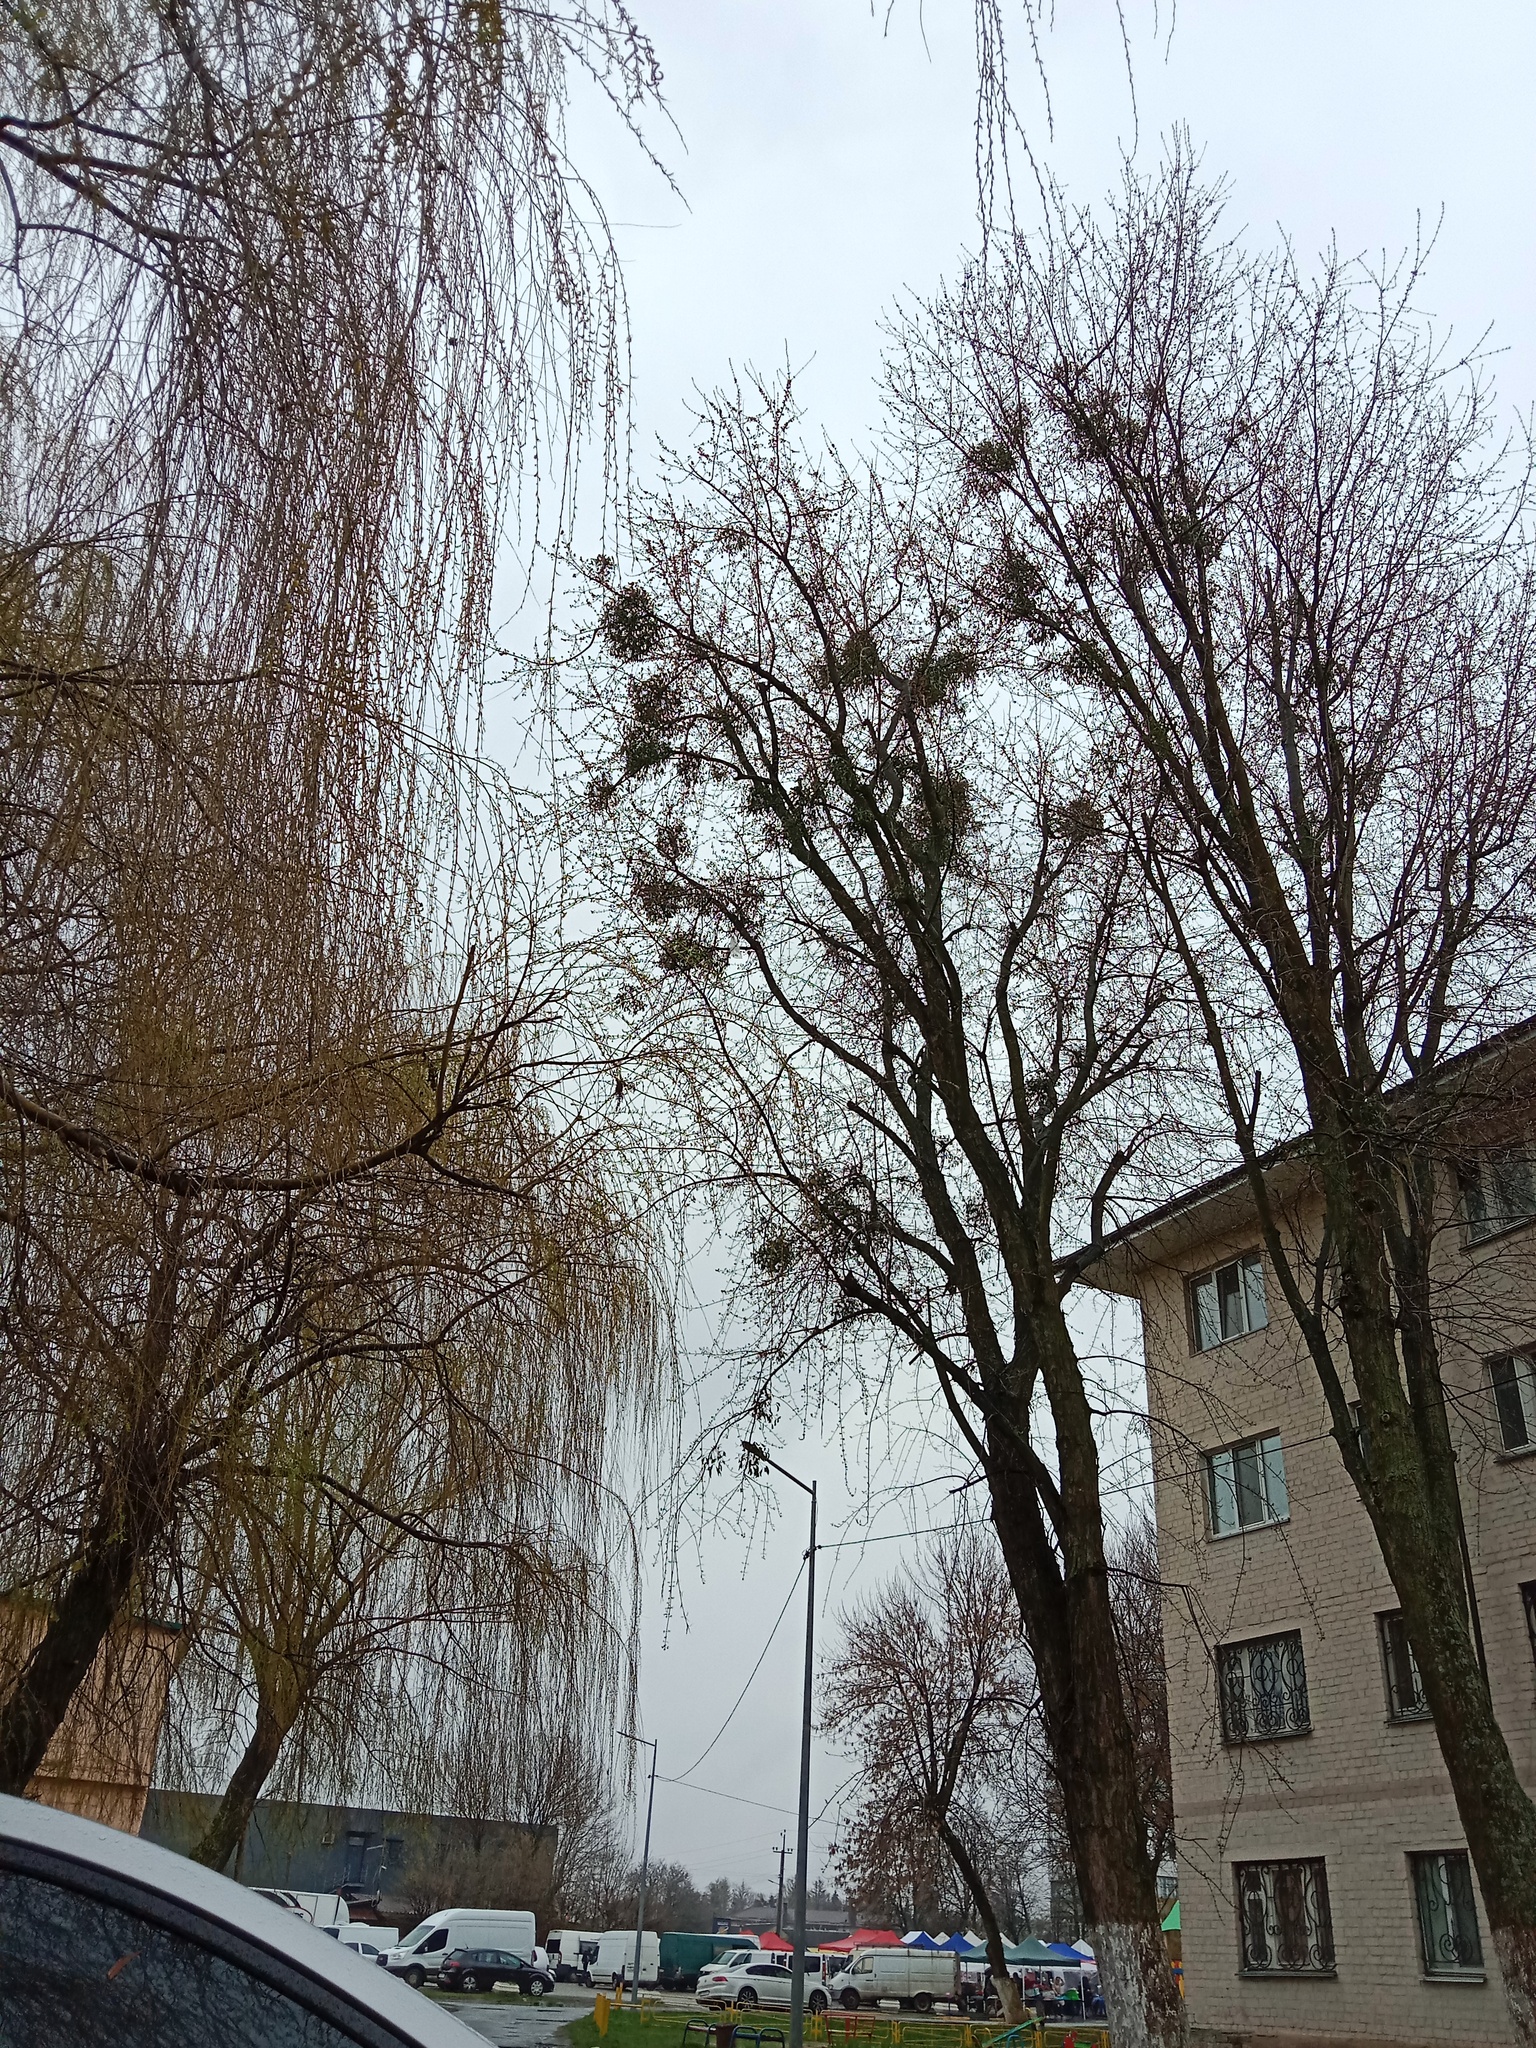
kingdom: Plantae
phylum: Tracheophyta
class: Magnoliopsida
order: Santalales
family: Viscaceae
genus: Viscum
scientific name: Viscum album
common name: Mistletoe
